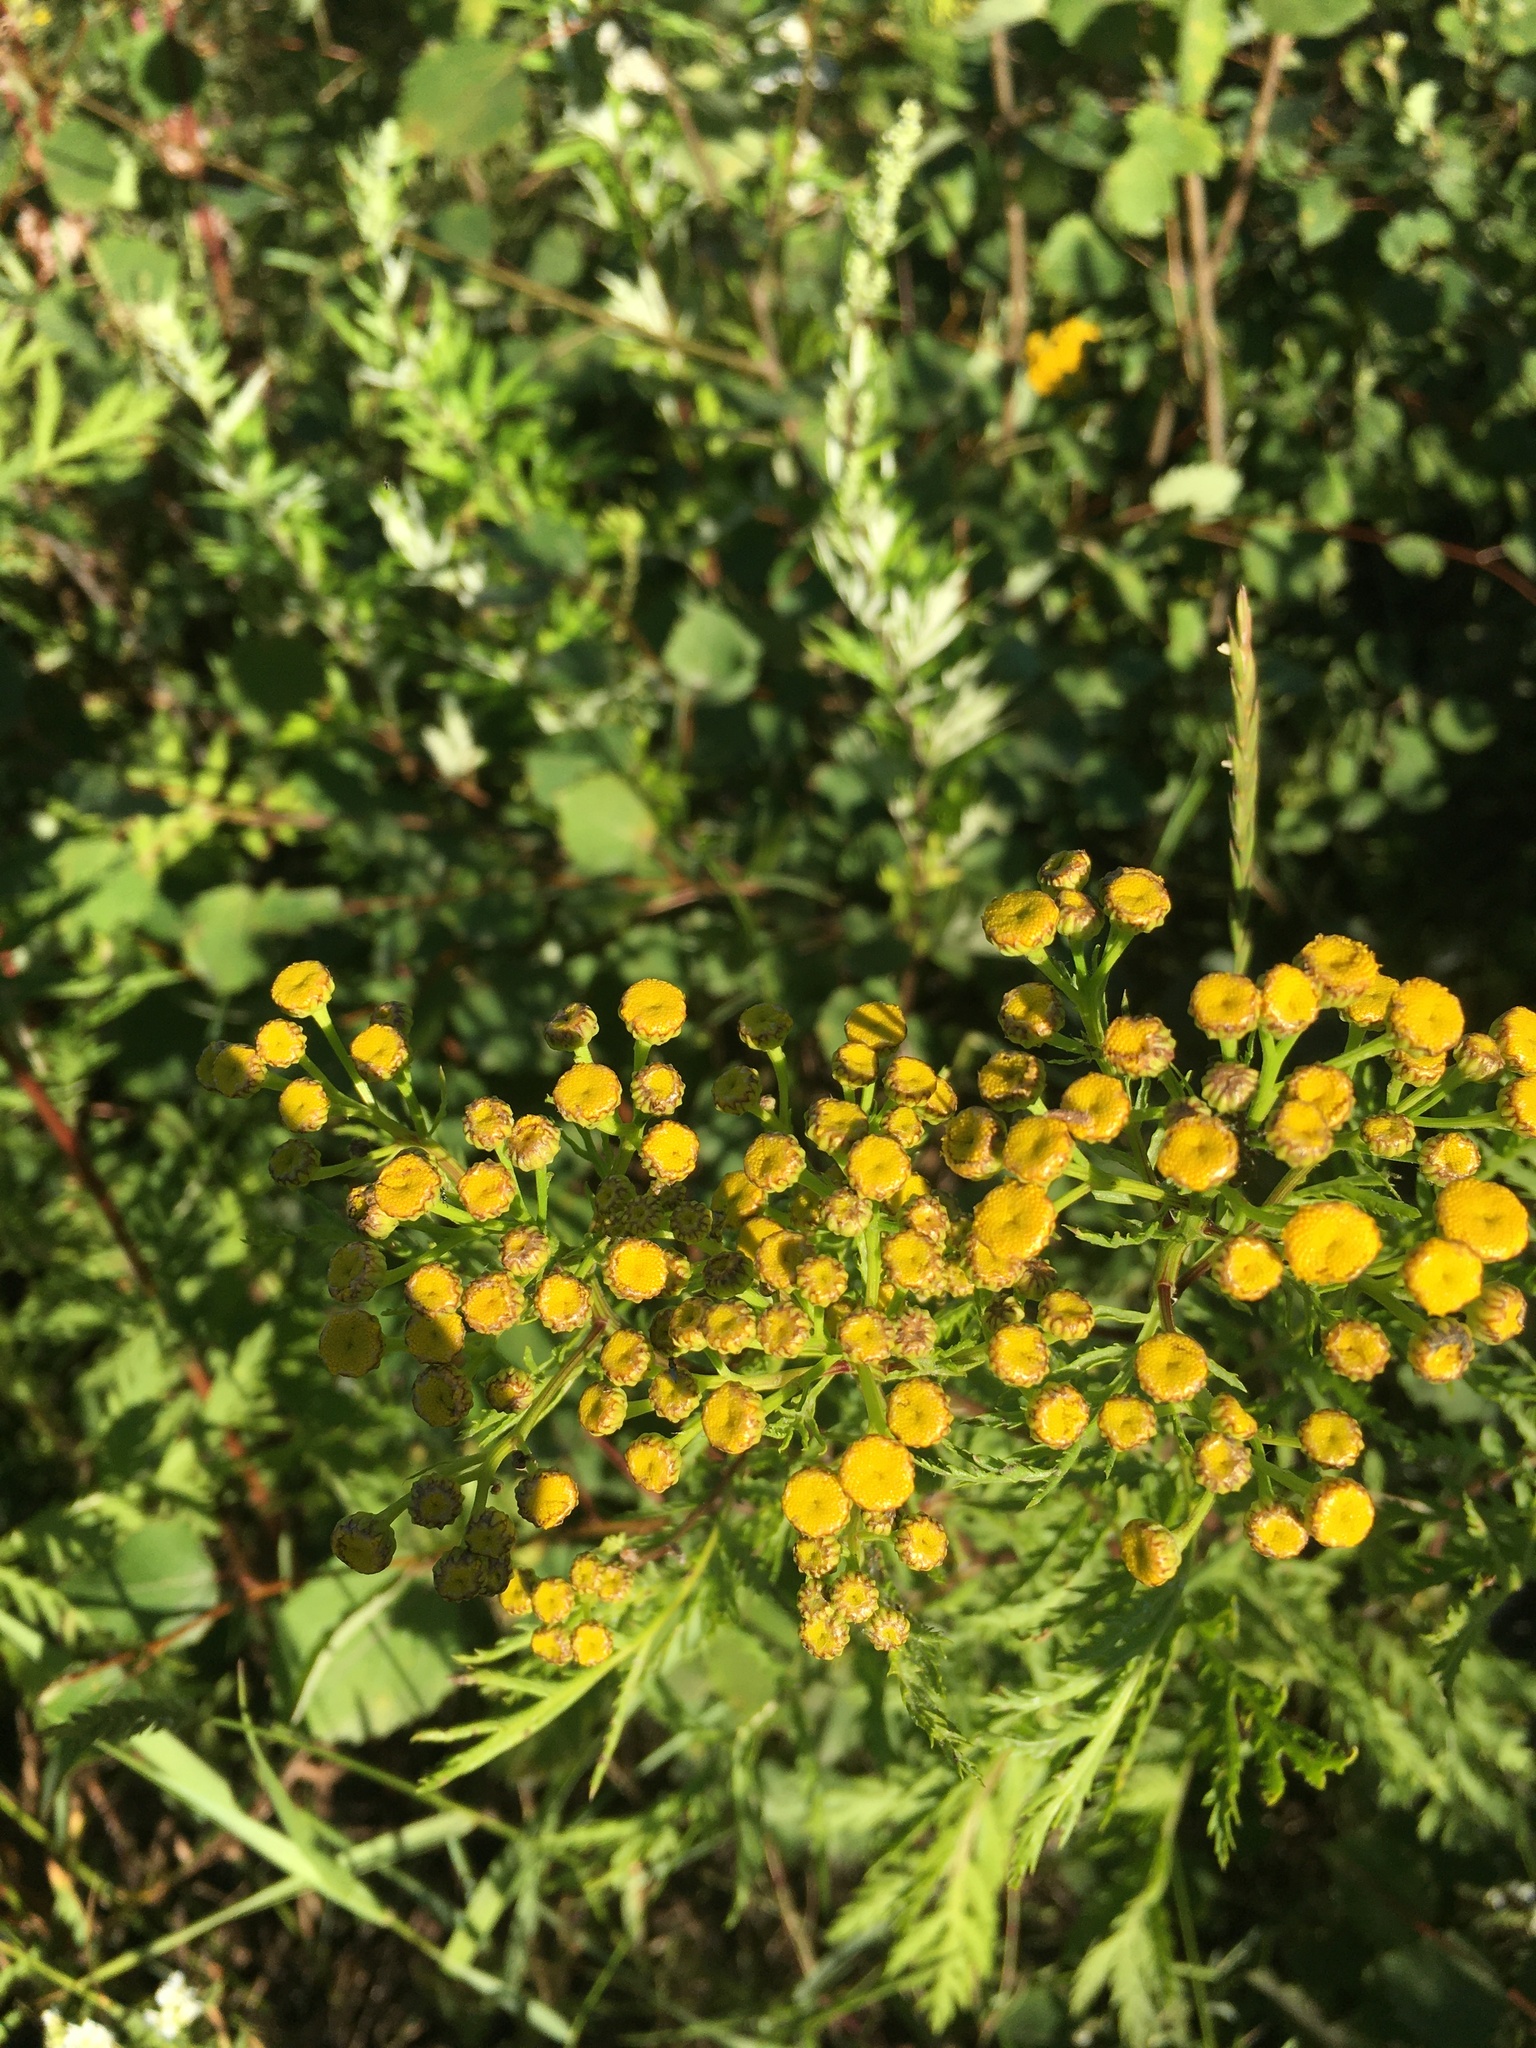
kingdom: Plantae
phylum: Tracheophyta
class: Magnoliopsida
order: Asterales
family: Asteraceae
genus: Tanacetum
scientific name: Tanacetum vulgare
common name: Common tansy
